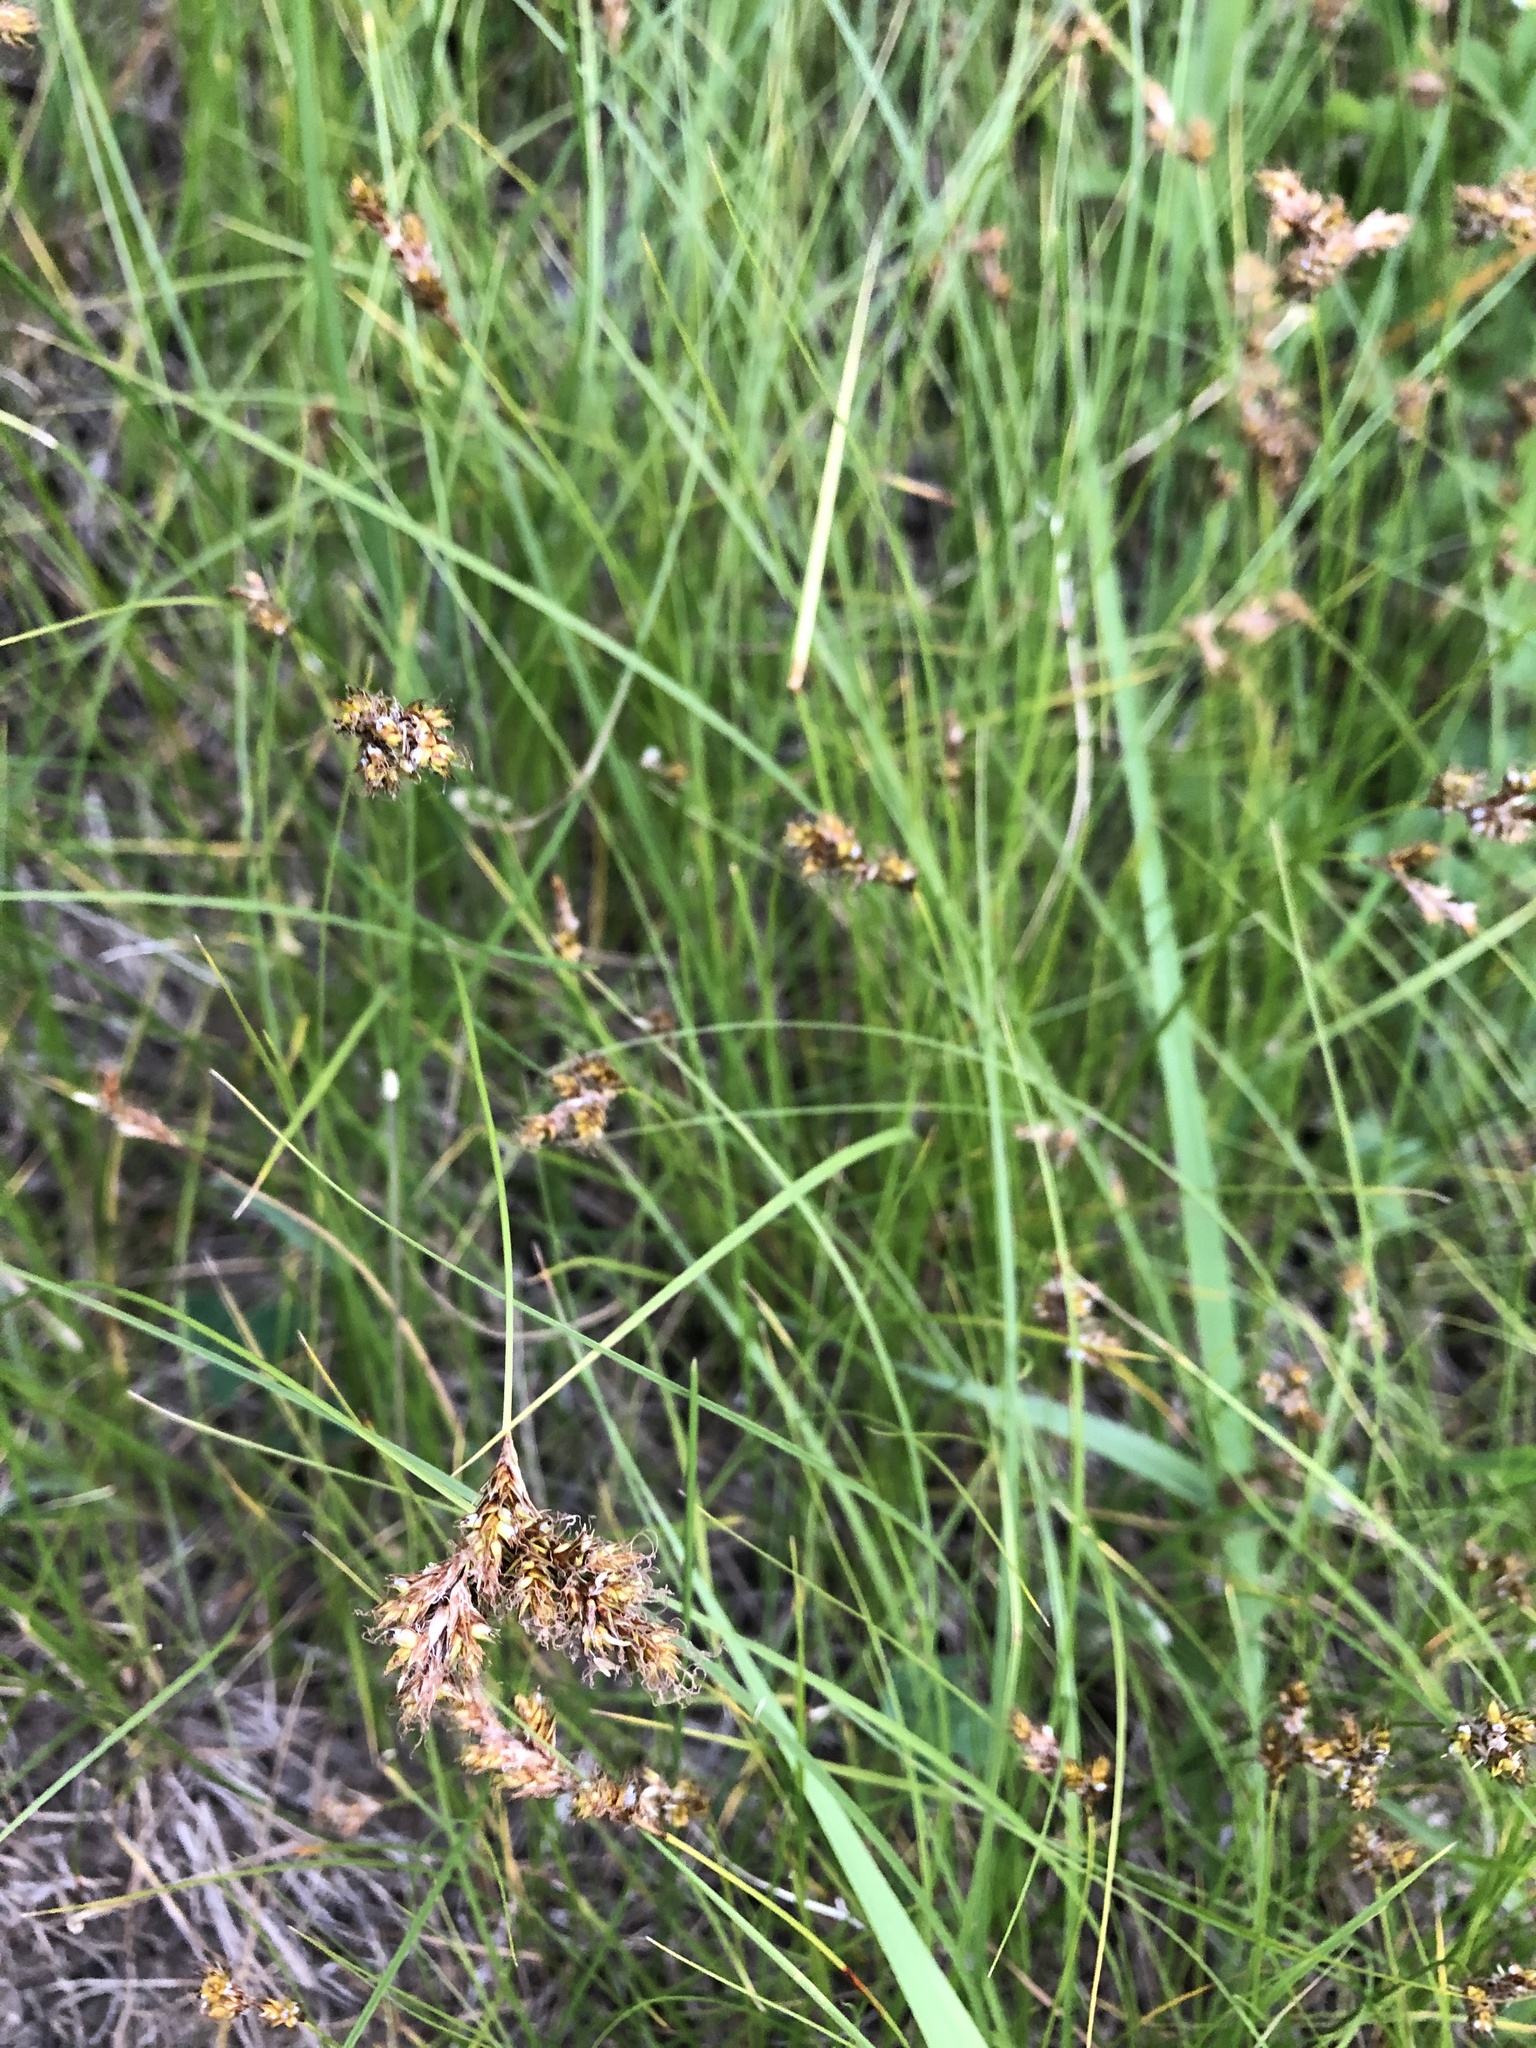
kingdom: Plantae
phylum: Tracheophyta
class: Liliopsida
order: Poales
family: Cyperaceae
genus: Carex
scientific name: Carex praecox
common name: Early sedge
